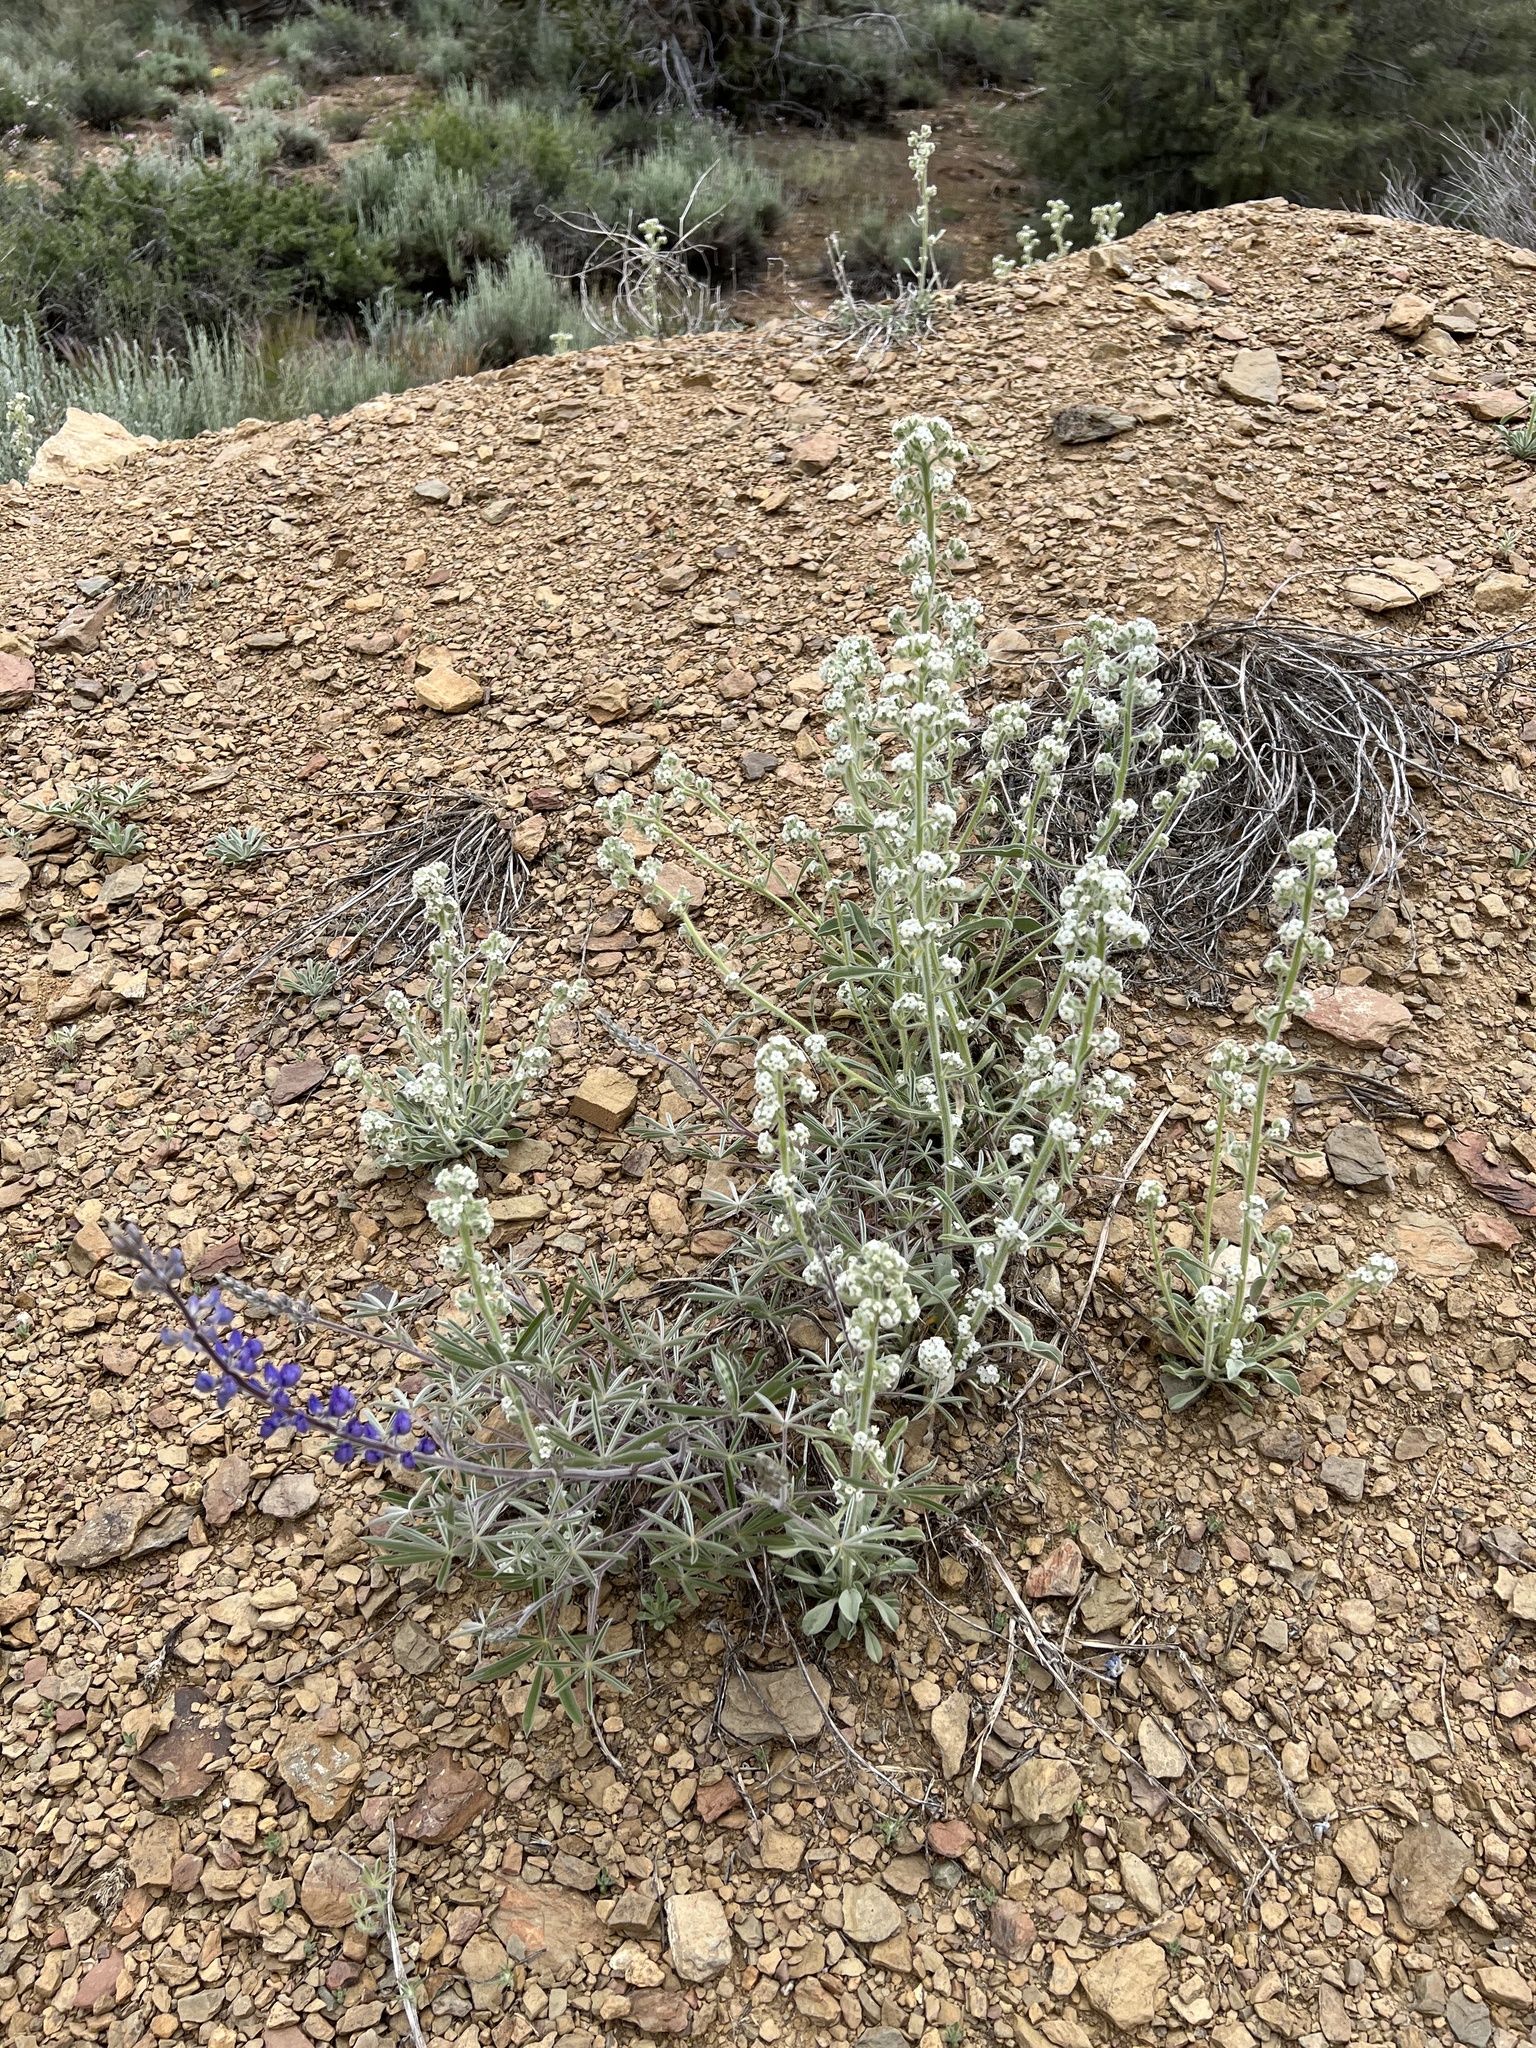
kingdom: Plantae
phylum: Tracheophyta
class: Magnoliopsida
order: Boraginales
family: Boraginaceae
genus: Oreocarya
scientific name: Oreocarya hoffmannii
